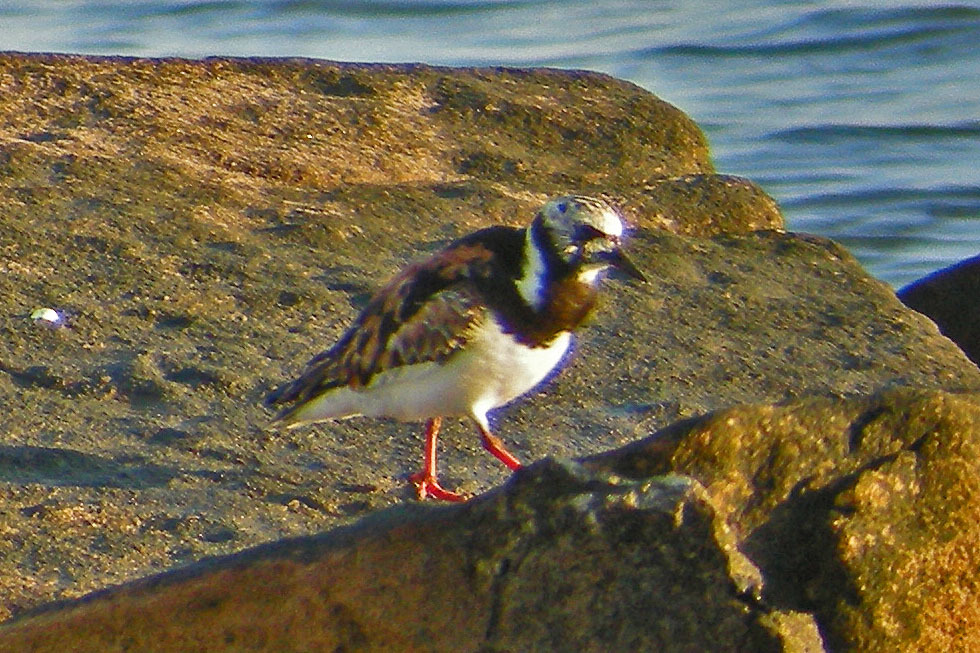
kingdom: Animalia
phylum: Chordata
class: Aves
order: Charadriiformes
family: Scolopacidae
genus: Arenaria
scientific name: Arenaria interpres
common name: Ruddy turnstone
